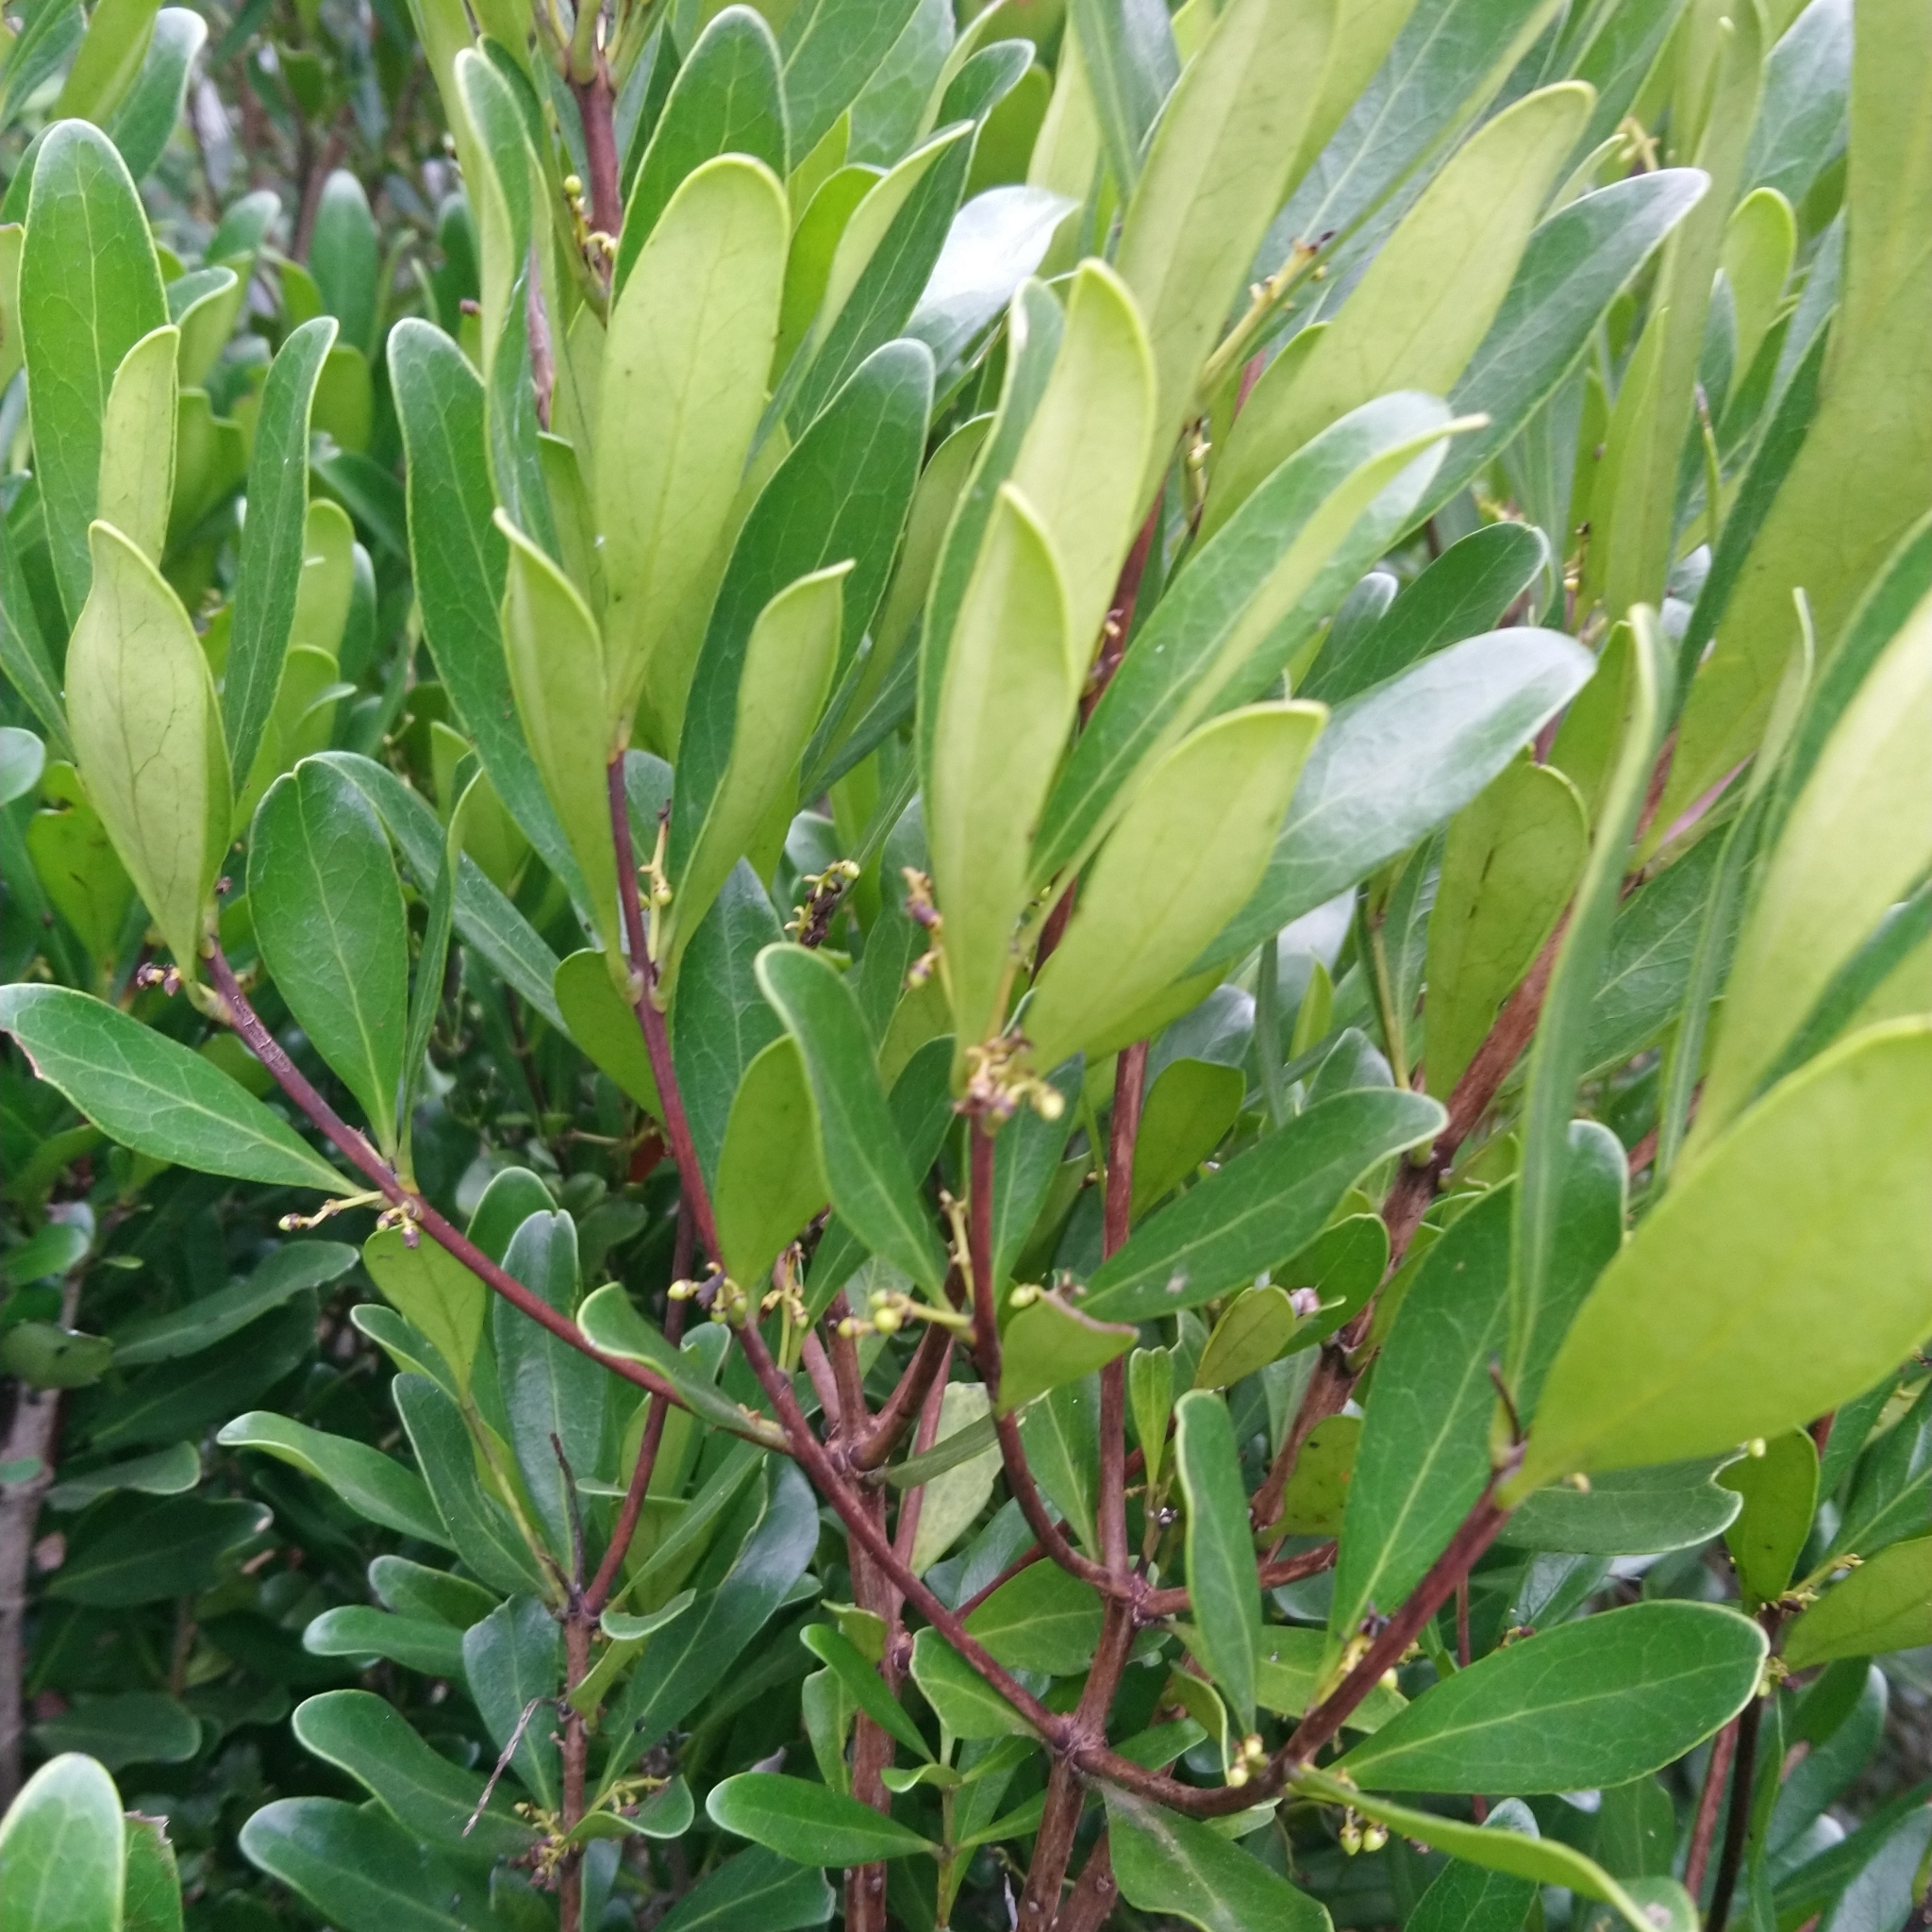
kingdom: Plantae
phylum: Tracheophyta
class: Magnoliopsida
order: Ericales
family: Ebenaceae
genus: Euclea
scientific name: Euclea racemosa
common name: Dune guarri
